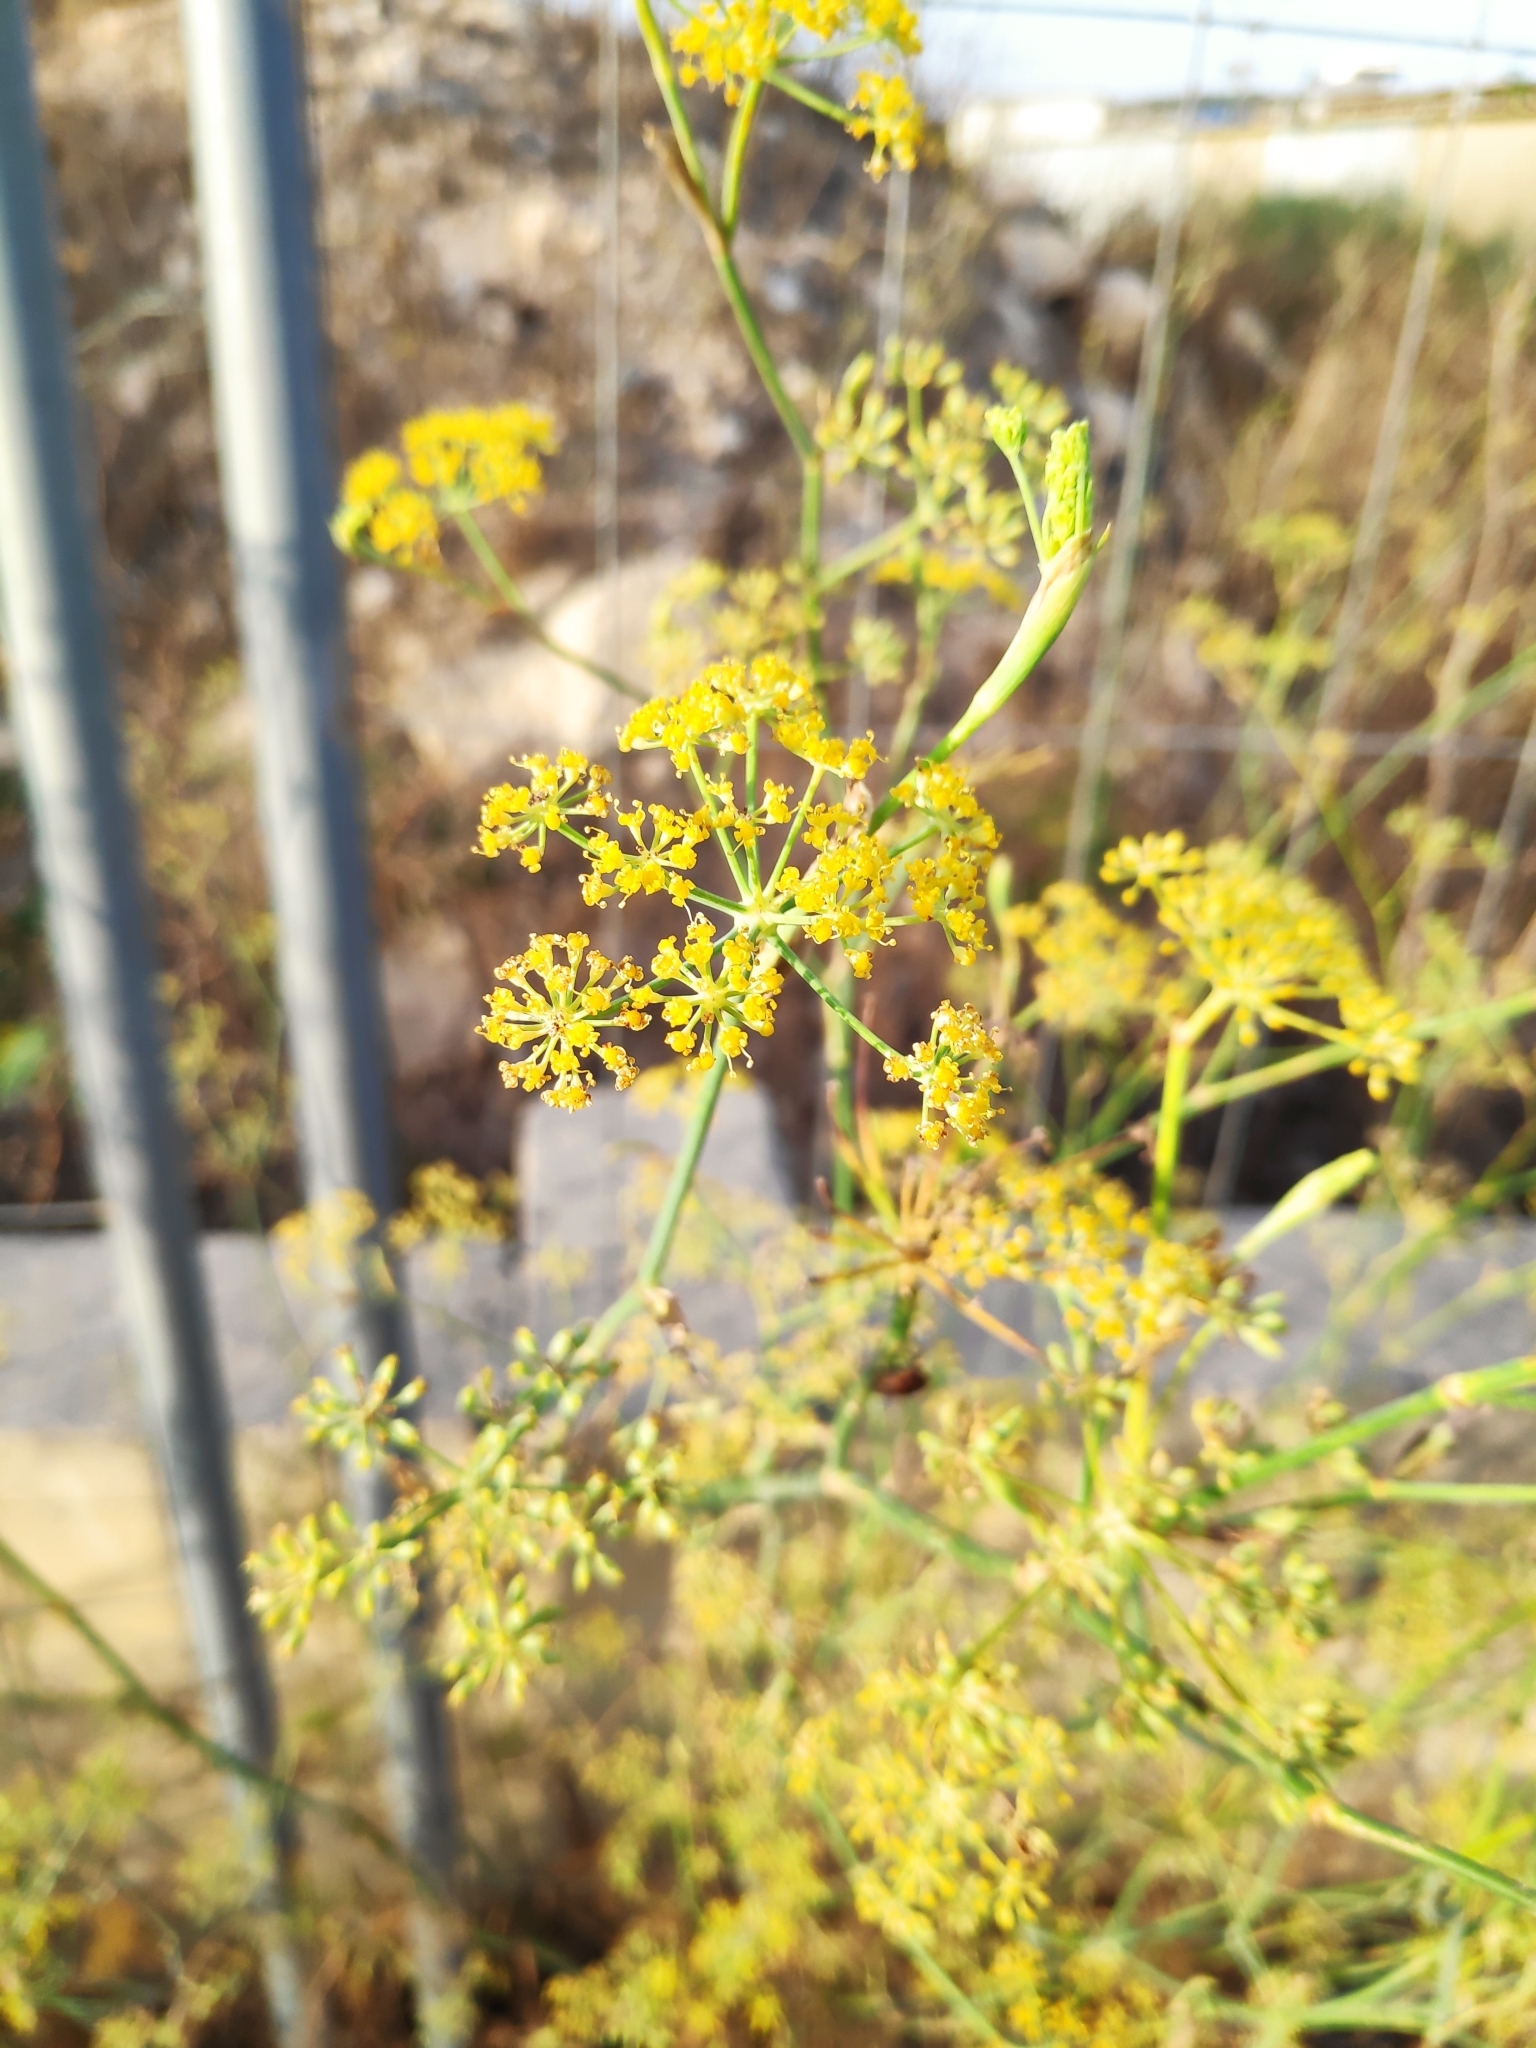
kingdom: Plantae
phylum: Tracheophyta
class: Magnoliopsida
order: Apiales
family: Apiaceae
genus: Foeniculum
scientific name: Foeniculum vulgare
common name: Fennel
